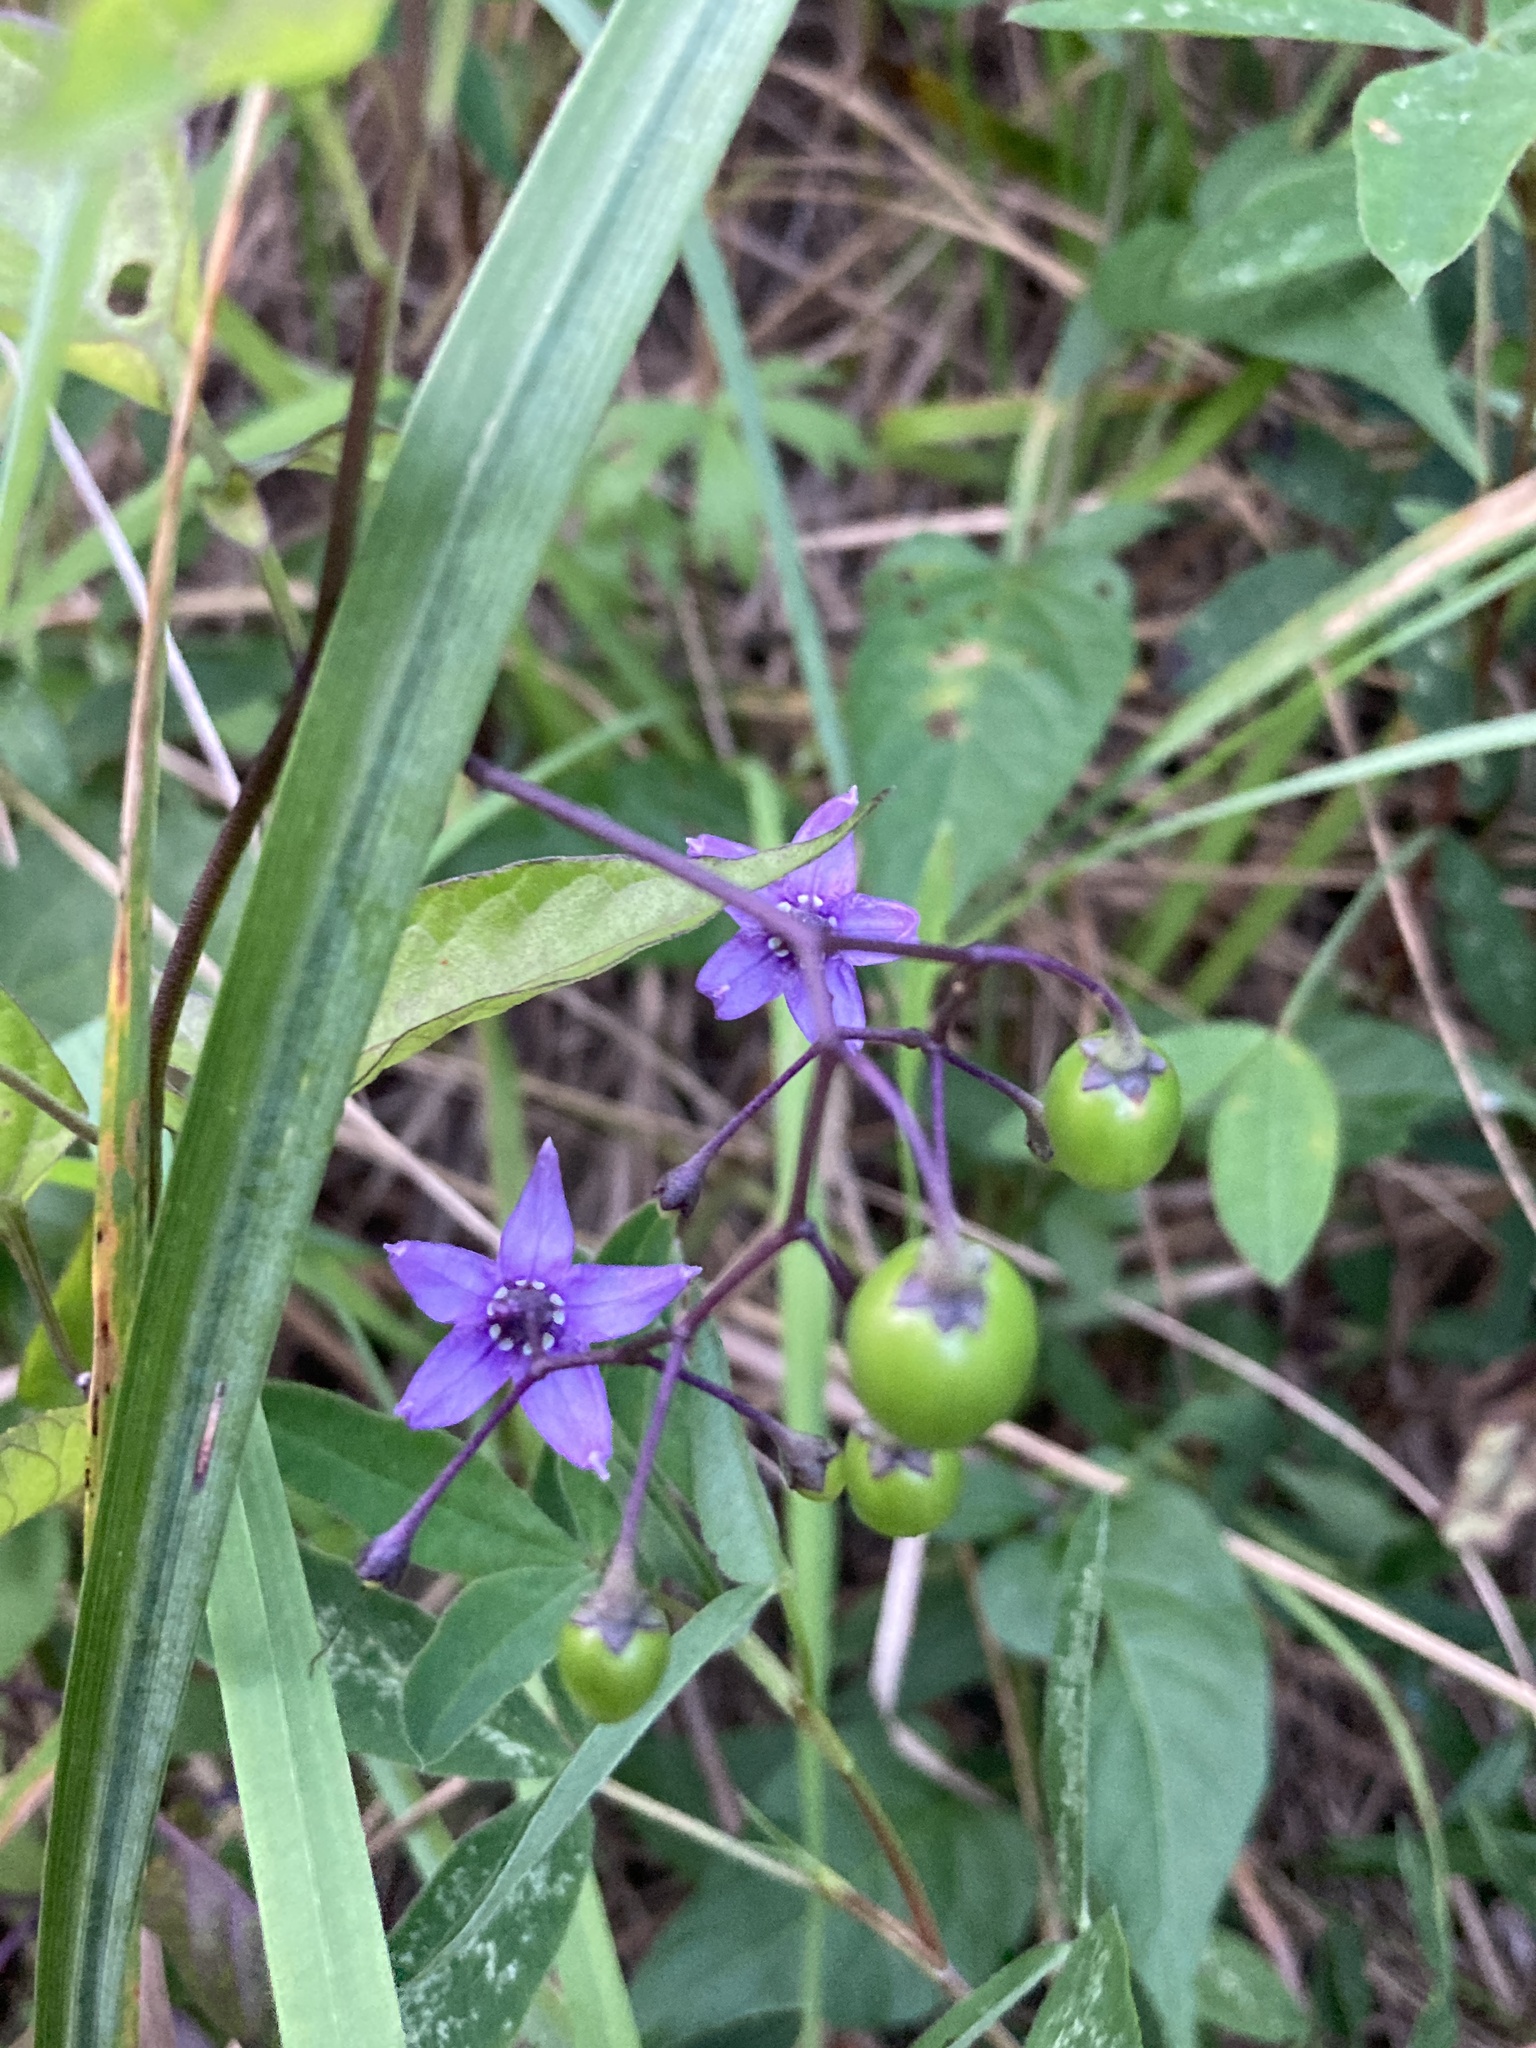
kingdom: Plantae
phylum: Tracheophyta
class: Magnoliopsida
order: Solanales
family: Solanaceae
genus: Solanum
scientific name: Solanum dulcamara
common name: Climbing nightshade
